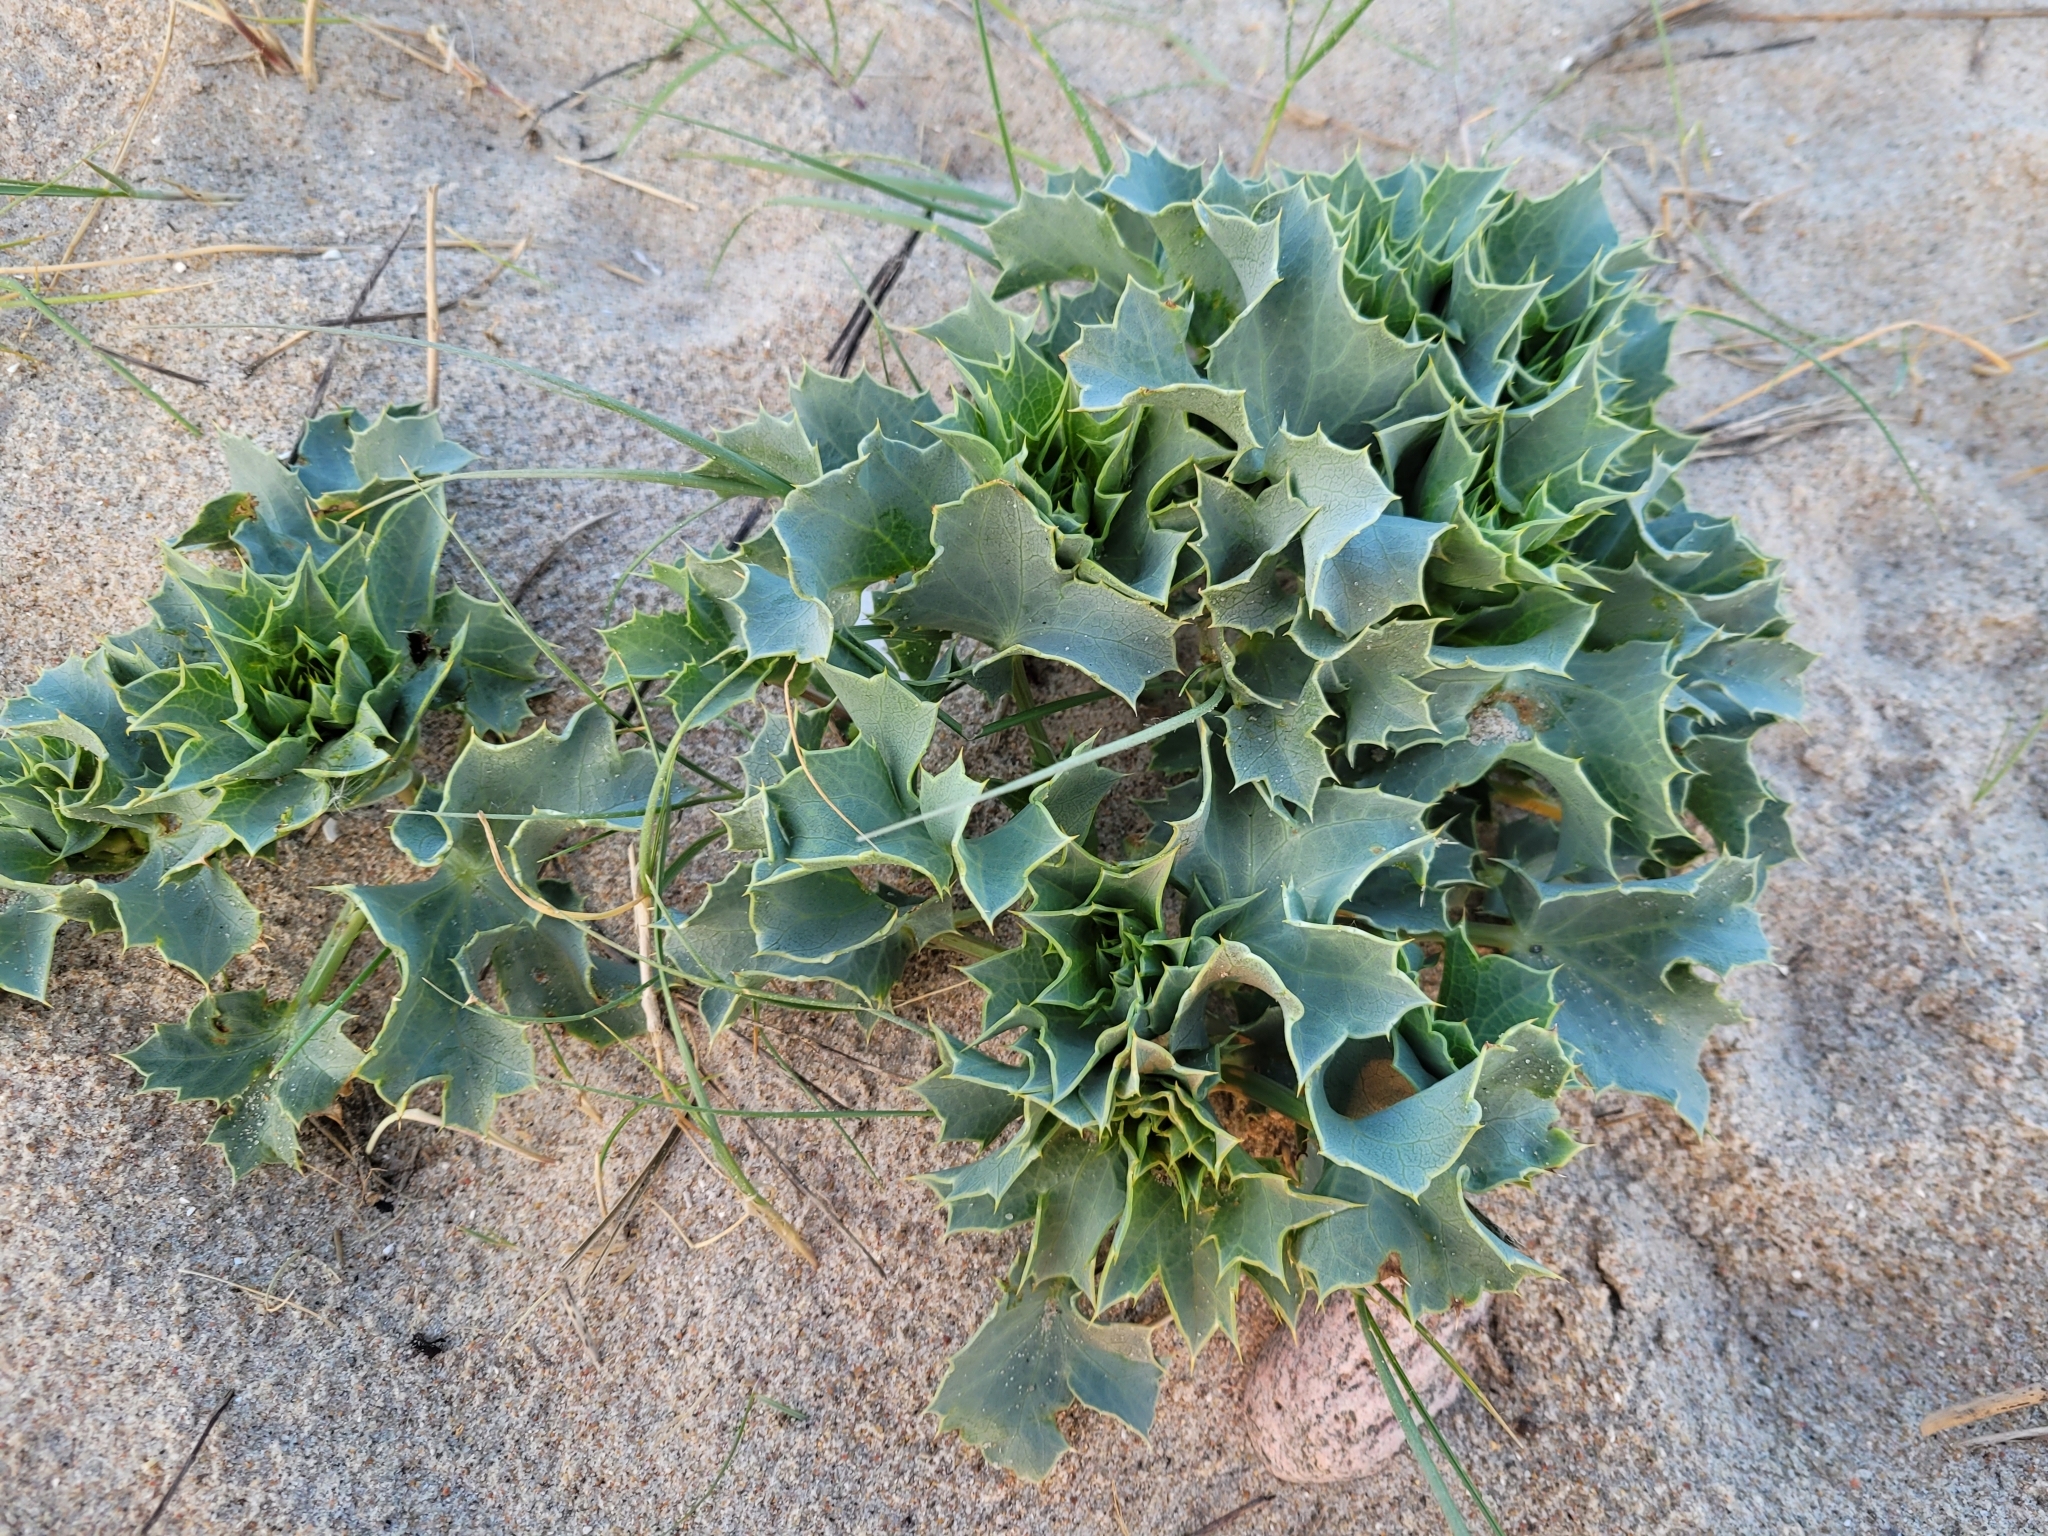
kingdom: Plantae
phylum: Tracheophyta
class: Magnoliopsida
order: Apiales
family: Apiaceae
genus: Eryngium
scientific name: Eryngium maritimum
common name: Sea-holly
